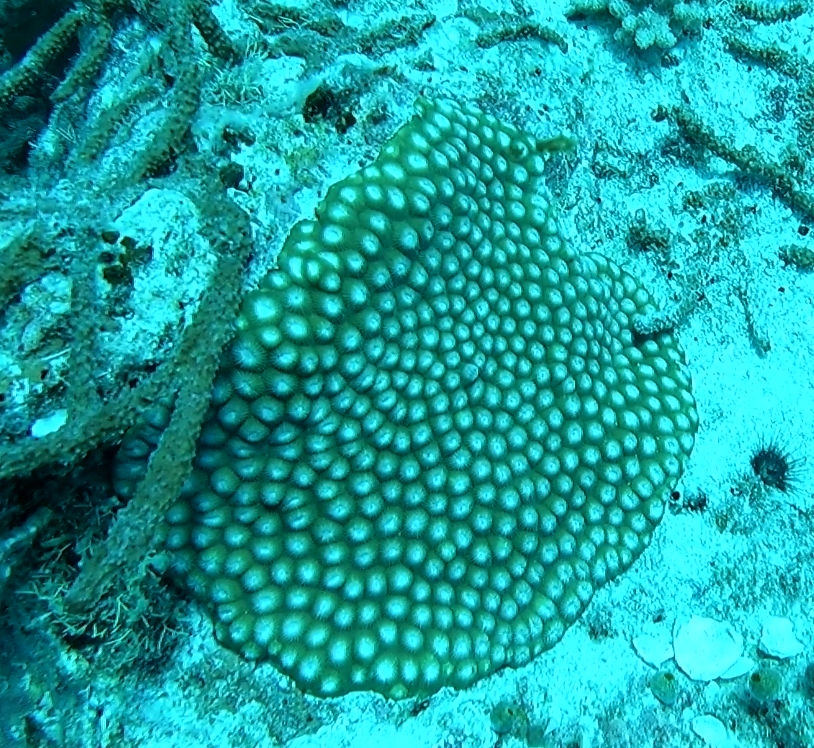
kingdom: Animalia
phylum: Cnidaria
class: Anthozoa
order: Scleractinia
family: Diploastraeidae
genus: Diploastrea
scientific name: Diploastrea heliopora
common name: Double-star coral
